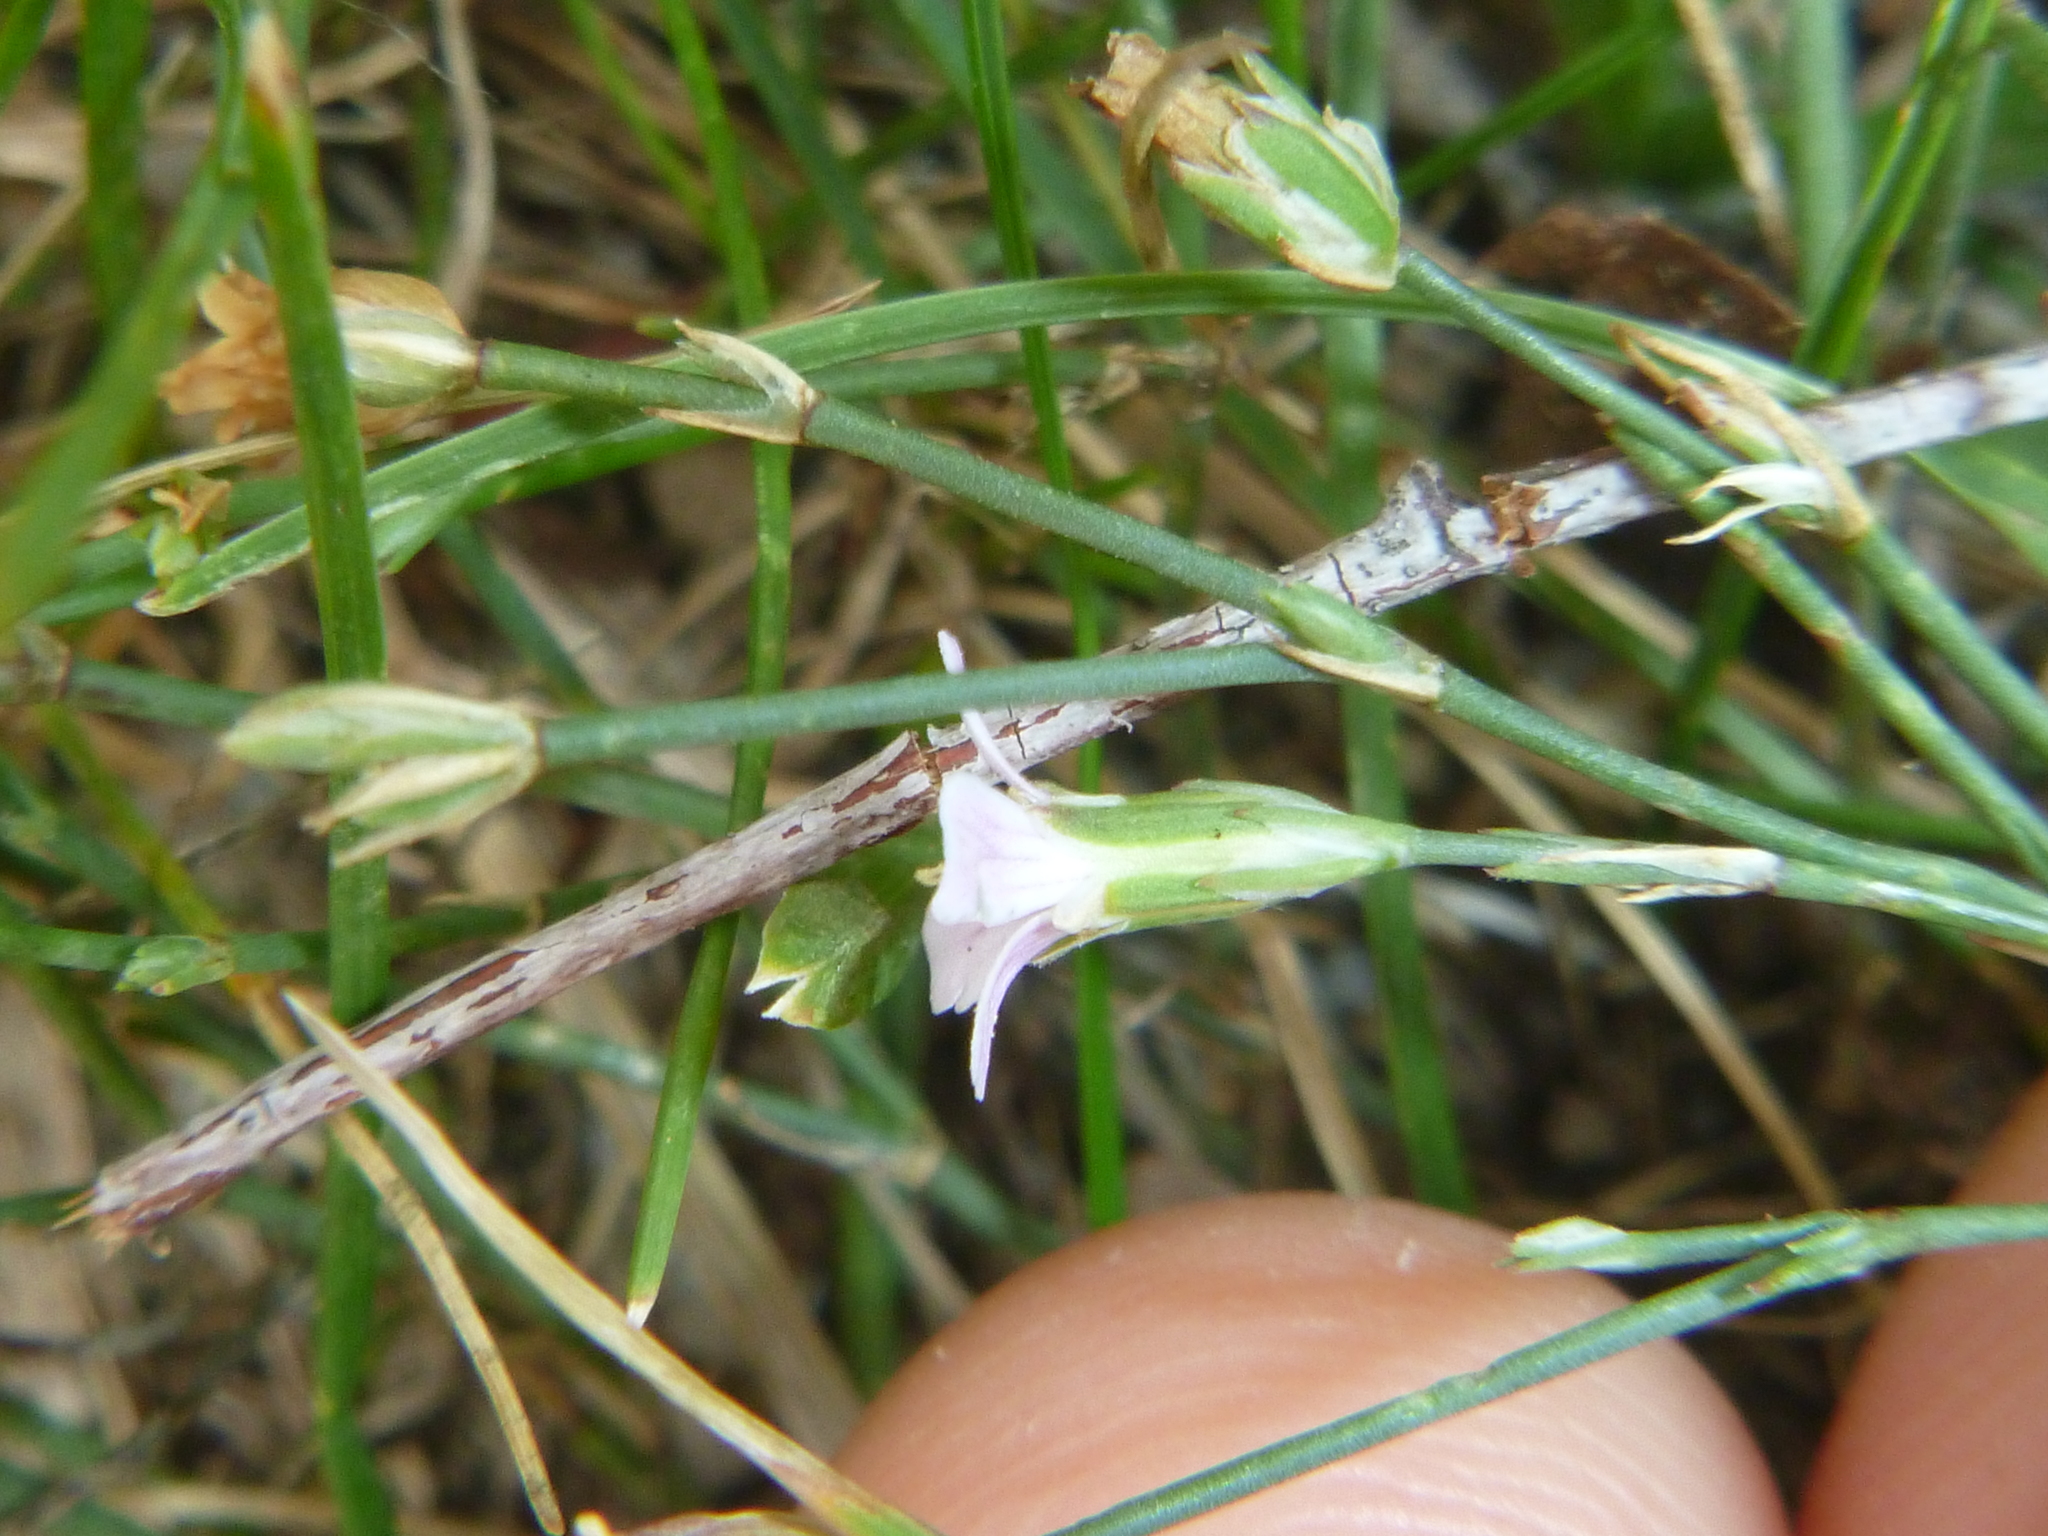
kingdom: Plantae
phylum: Tracheophyta
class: Magnoliopsida
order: Caryophyllales
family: Caryophyllaceae
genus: Petrorhagia
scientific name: Petrorhagia saxifraga
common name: Tunicflower
